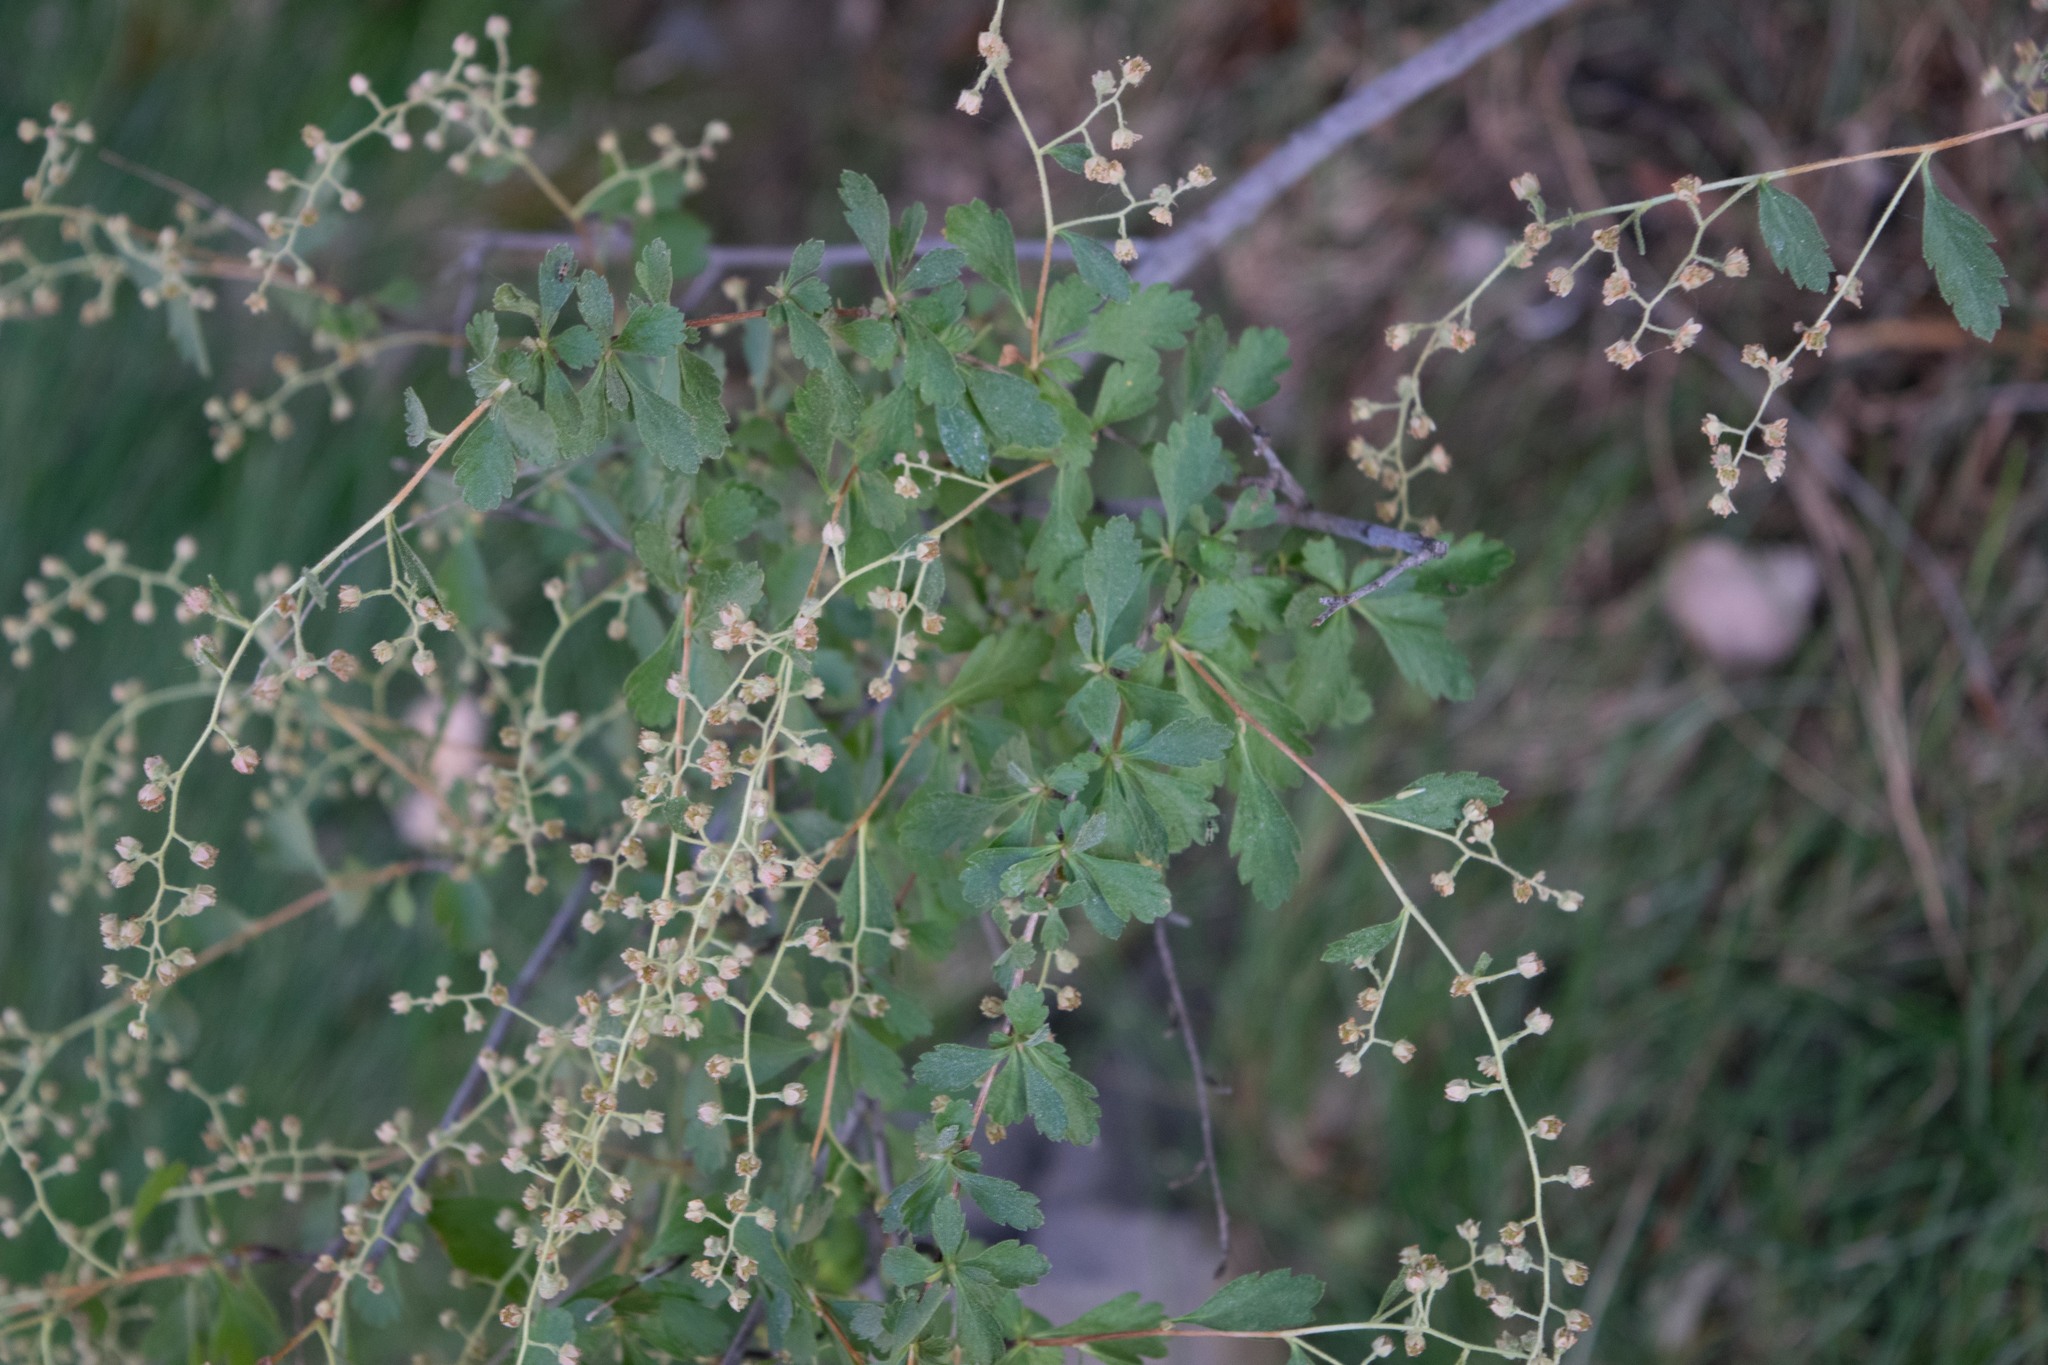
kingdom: Plantae
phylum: Tracheophyta
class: Magnoliopsida
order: Rosales
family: Rosaceae
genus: Holodiscus
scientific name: Holodiscus discolor
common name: Oceanspray
